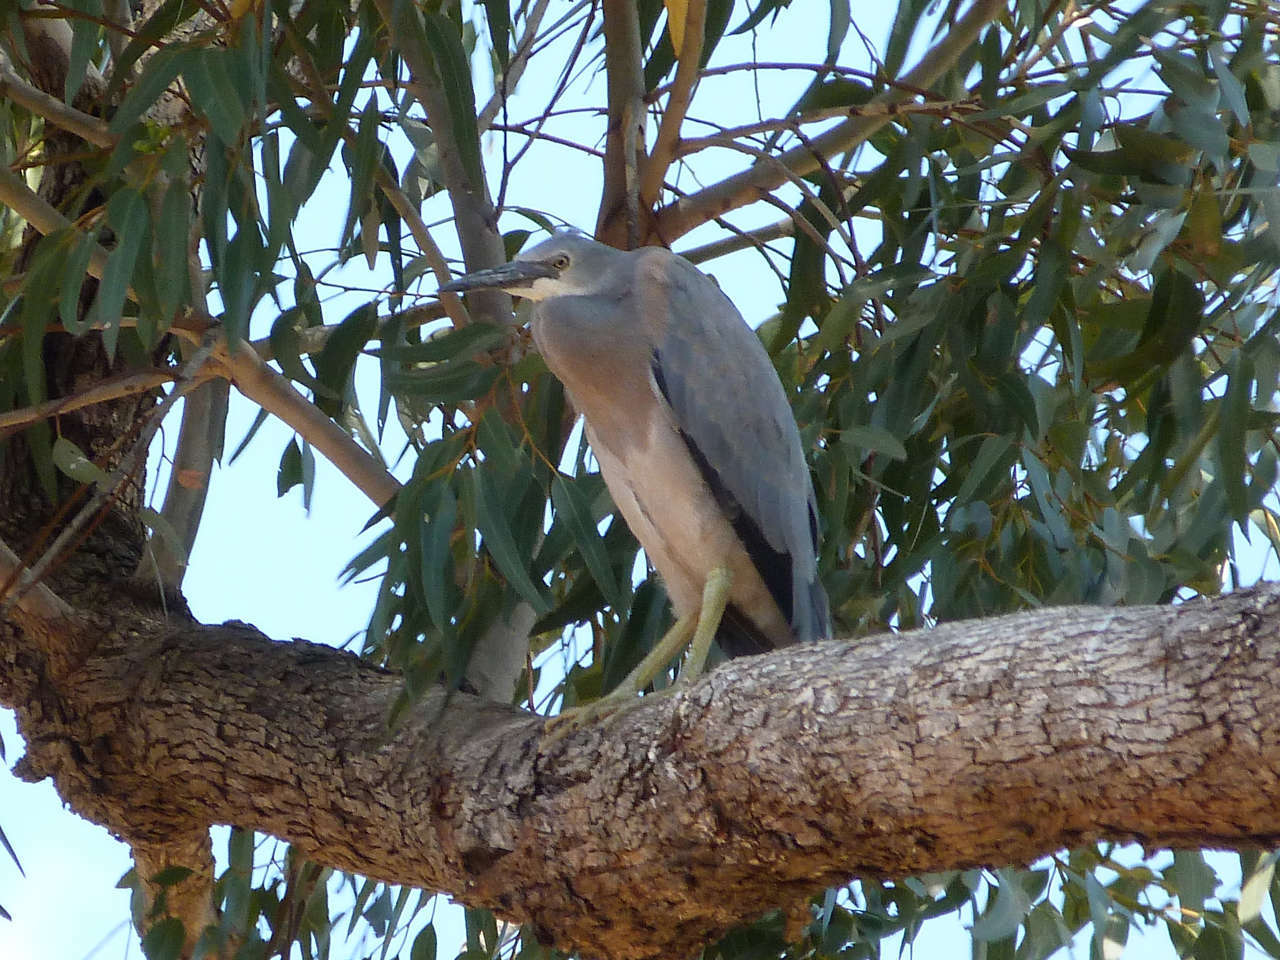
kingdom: Animalia
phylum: Chordata
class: Aves
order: Pelecaniformes
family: Ardeidae
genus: Egretta
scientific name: Egretta novaehollandiae
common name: White-faced heron
